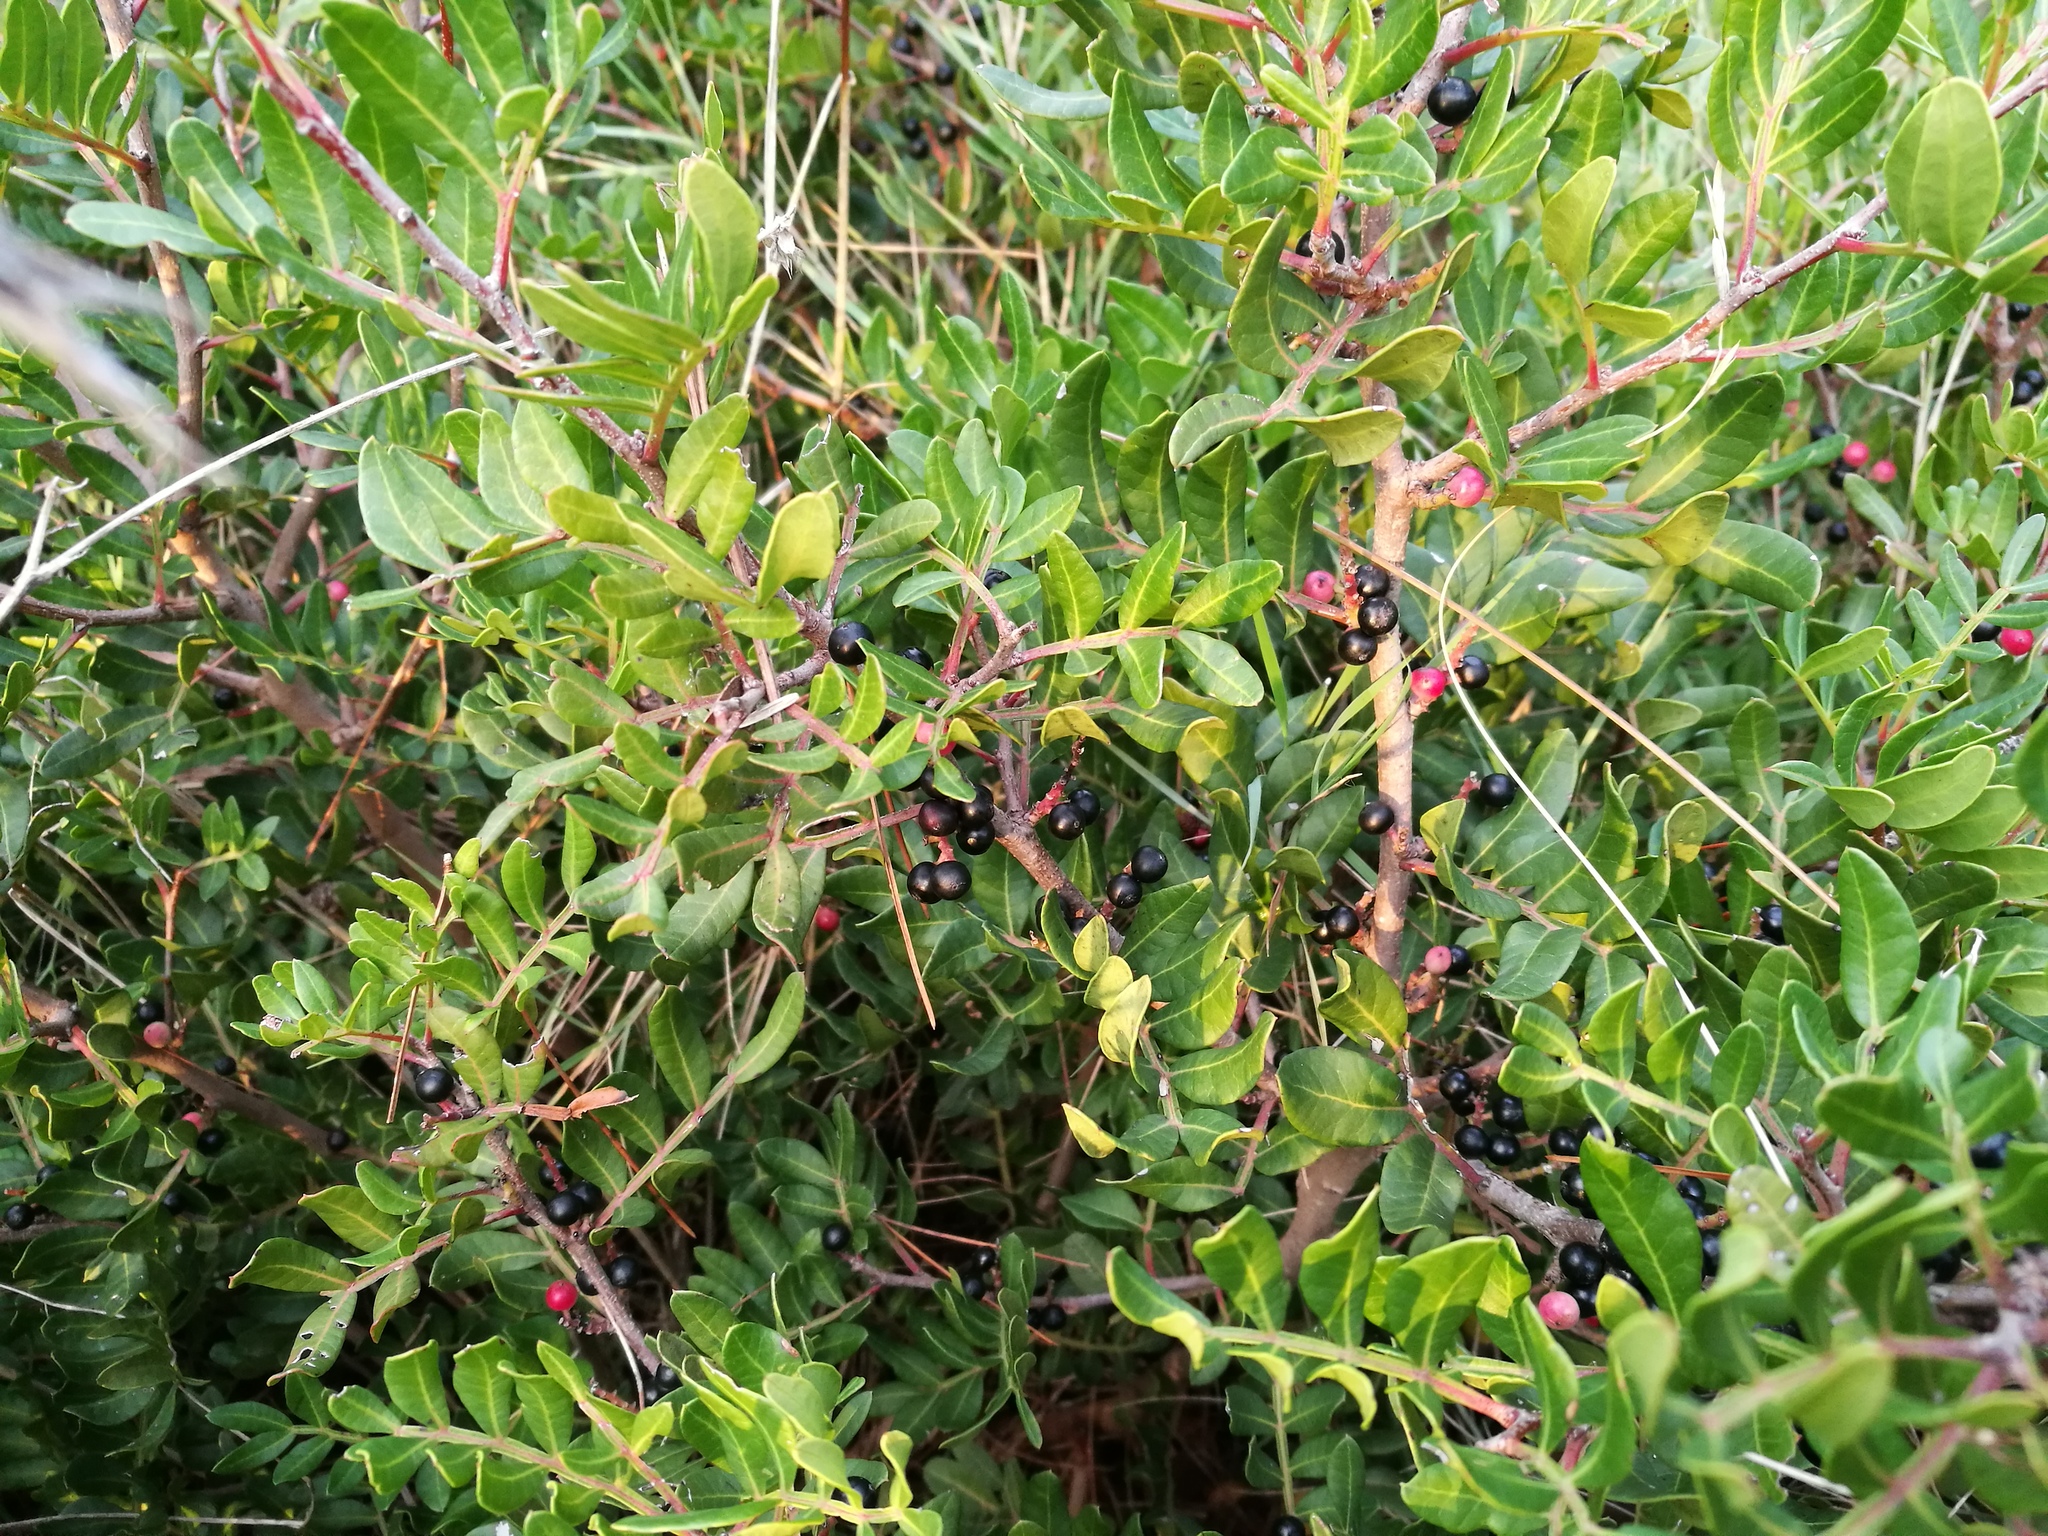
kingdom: Plantae
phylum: Tracheophyta
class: Magnoliopsida
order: Sapindales
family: Anacardiaceae
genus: Pistacia
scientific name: Pistacia lentiscus
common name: Lentisk
